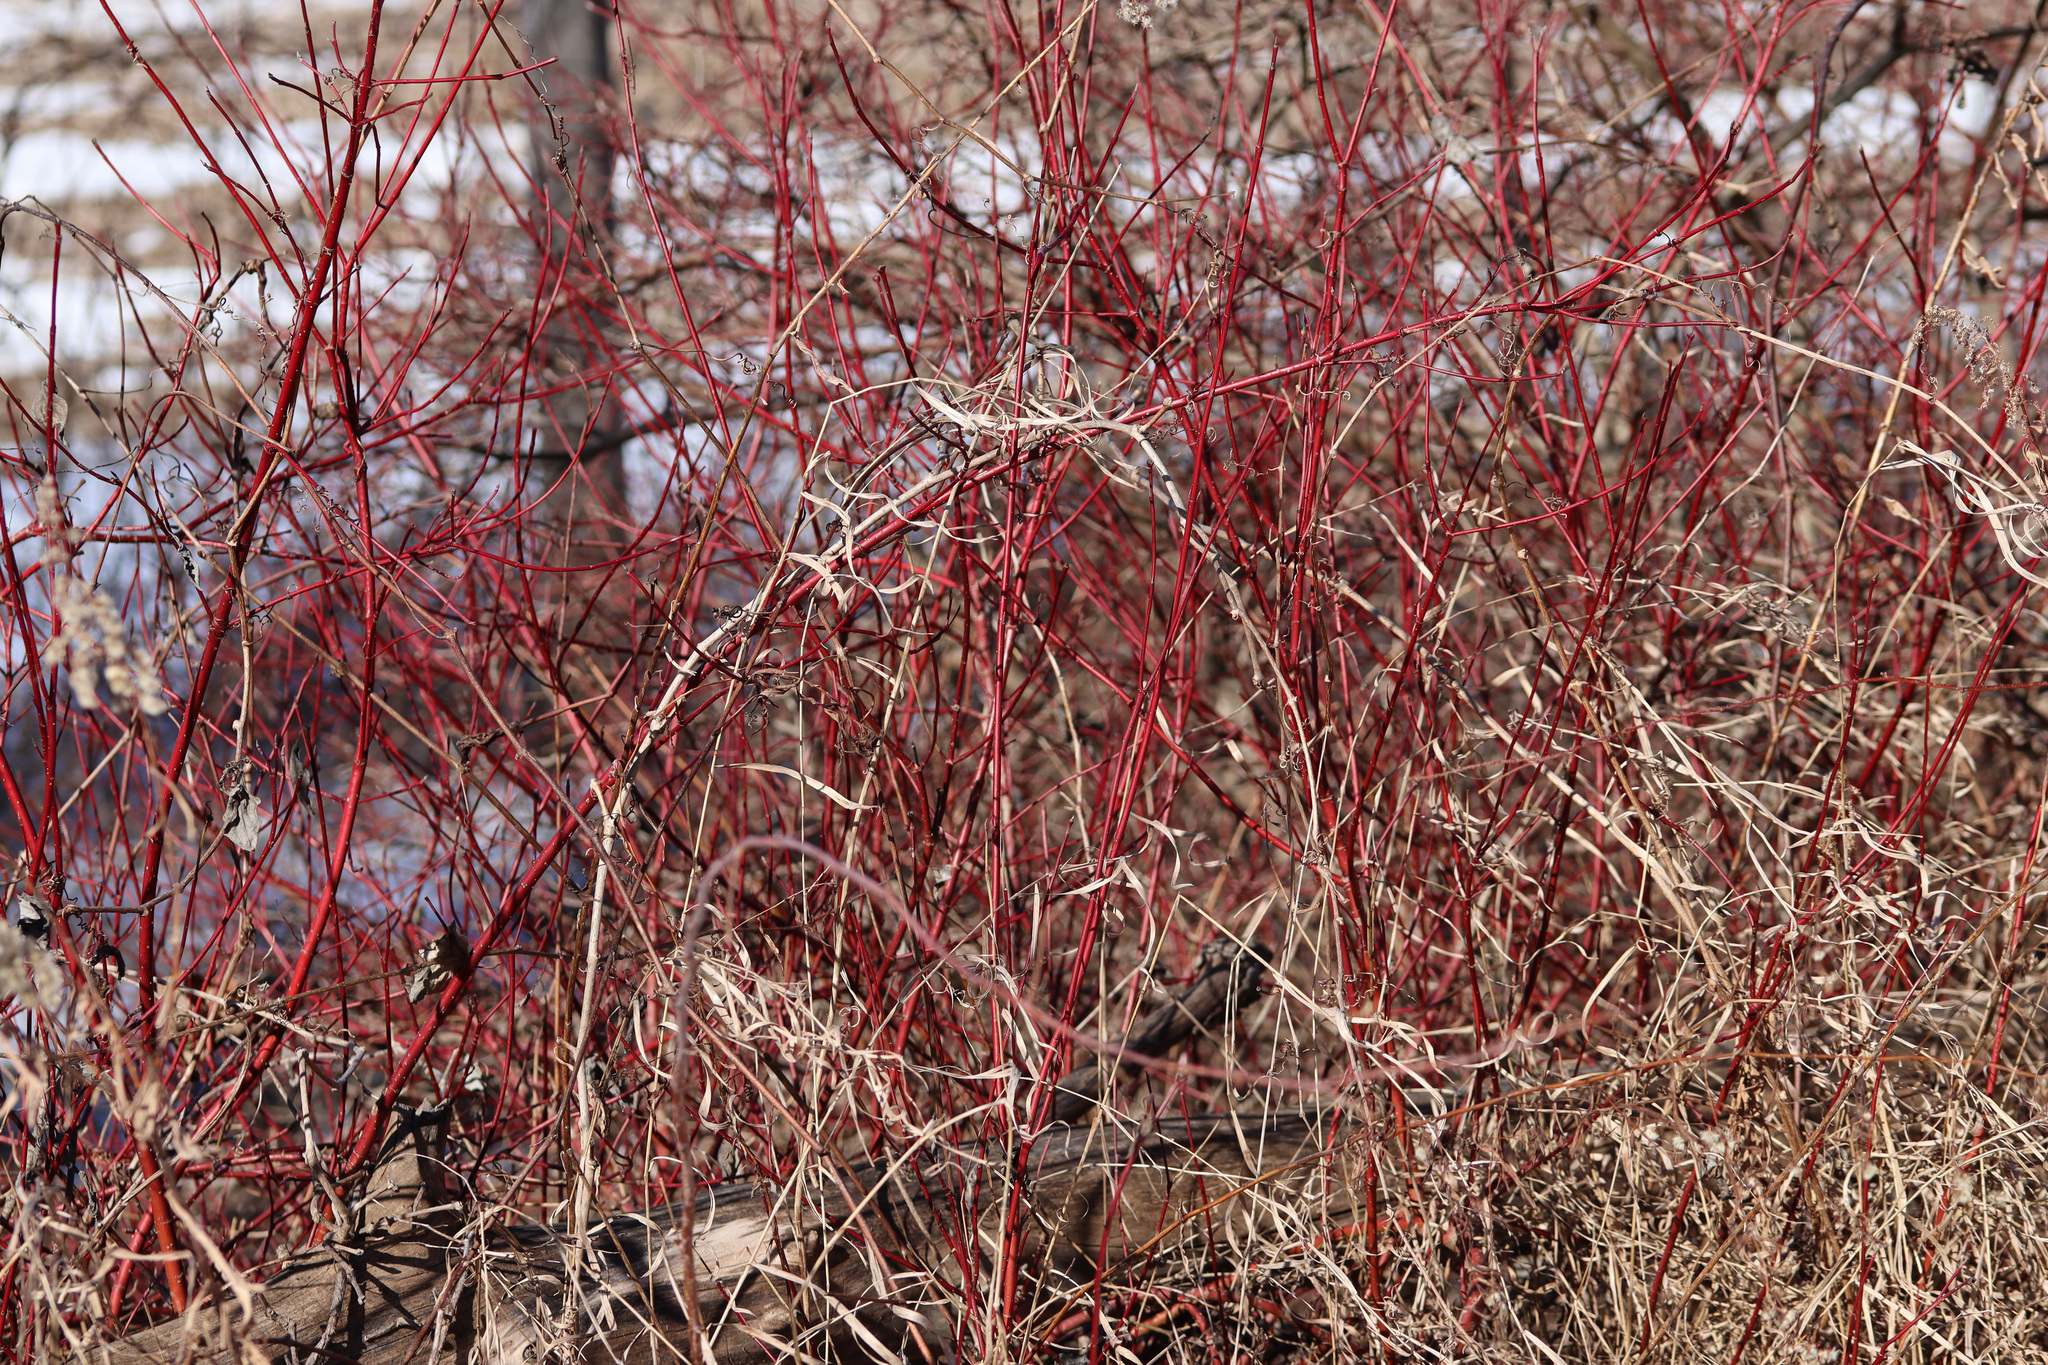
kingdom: Plantae
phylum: Tracheophyta
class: Magnoliopsida
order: Cornales
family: Cornaceae
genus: Cornus
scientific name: Cornus sericea
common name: Red-osier dogwood
